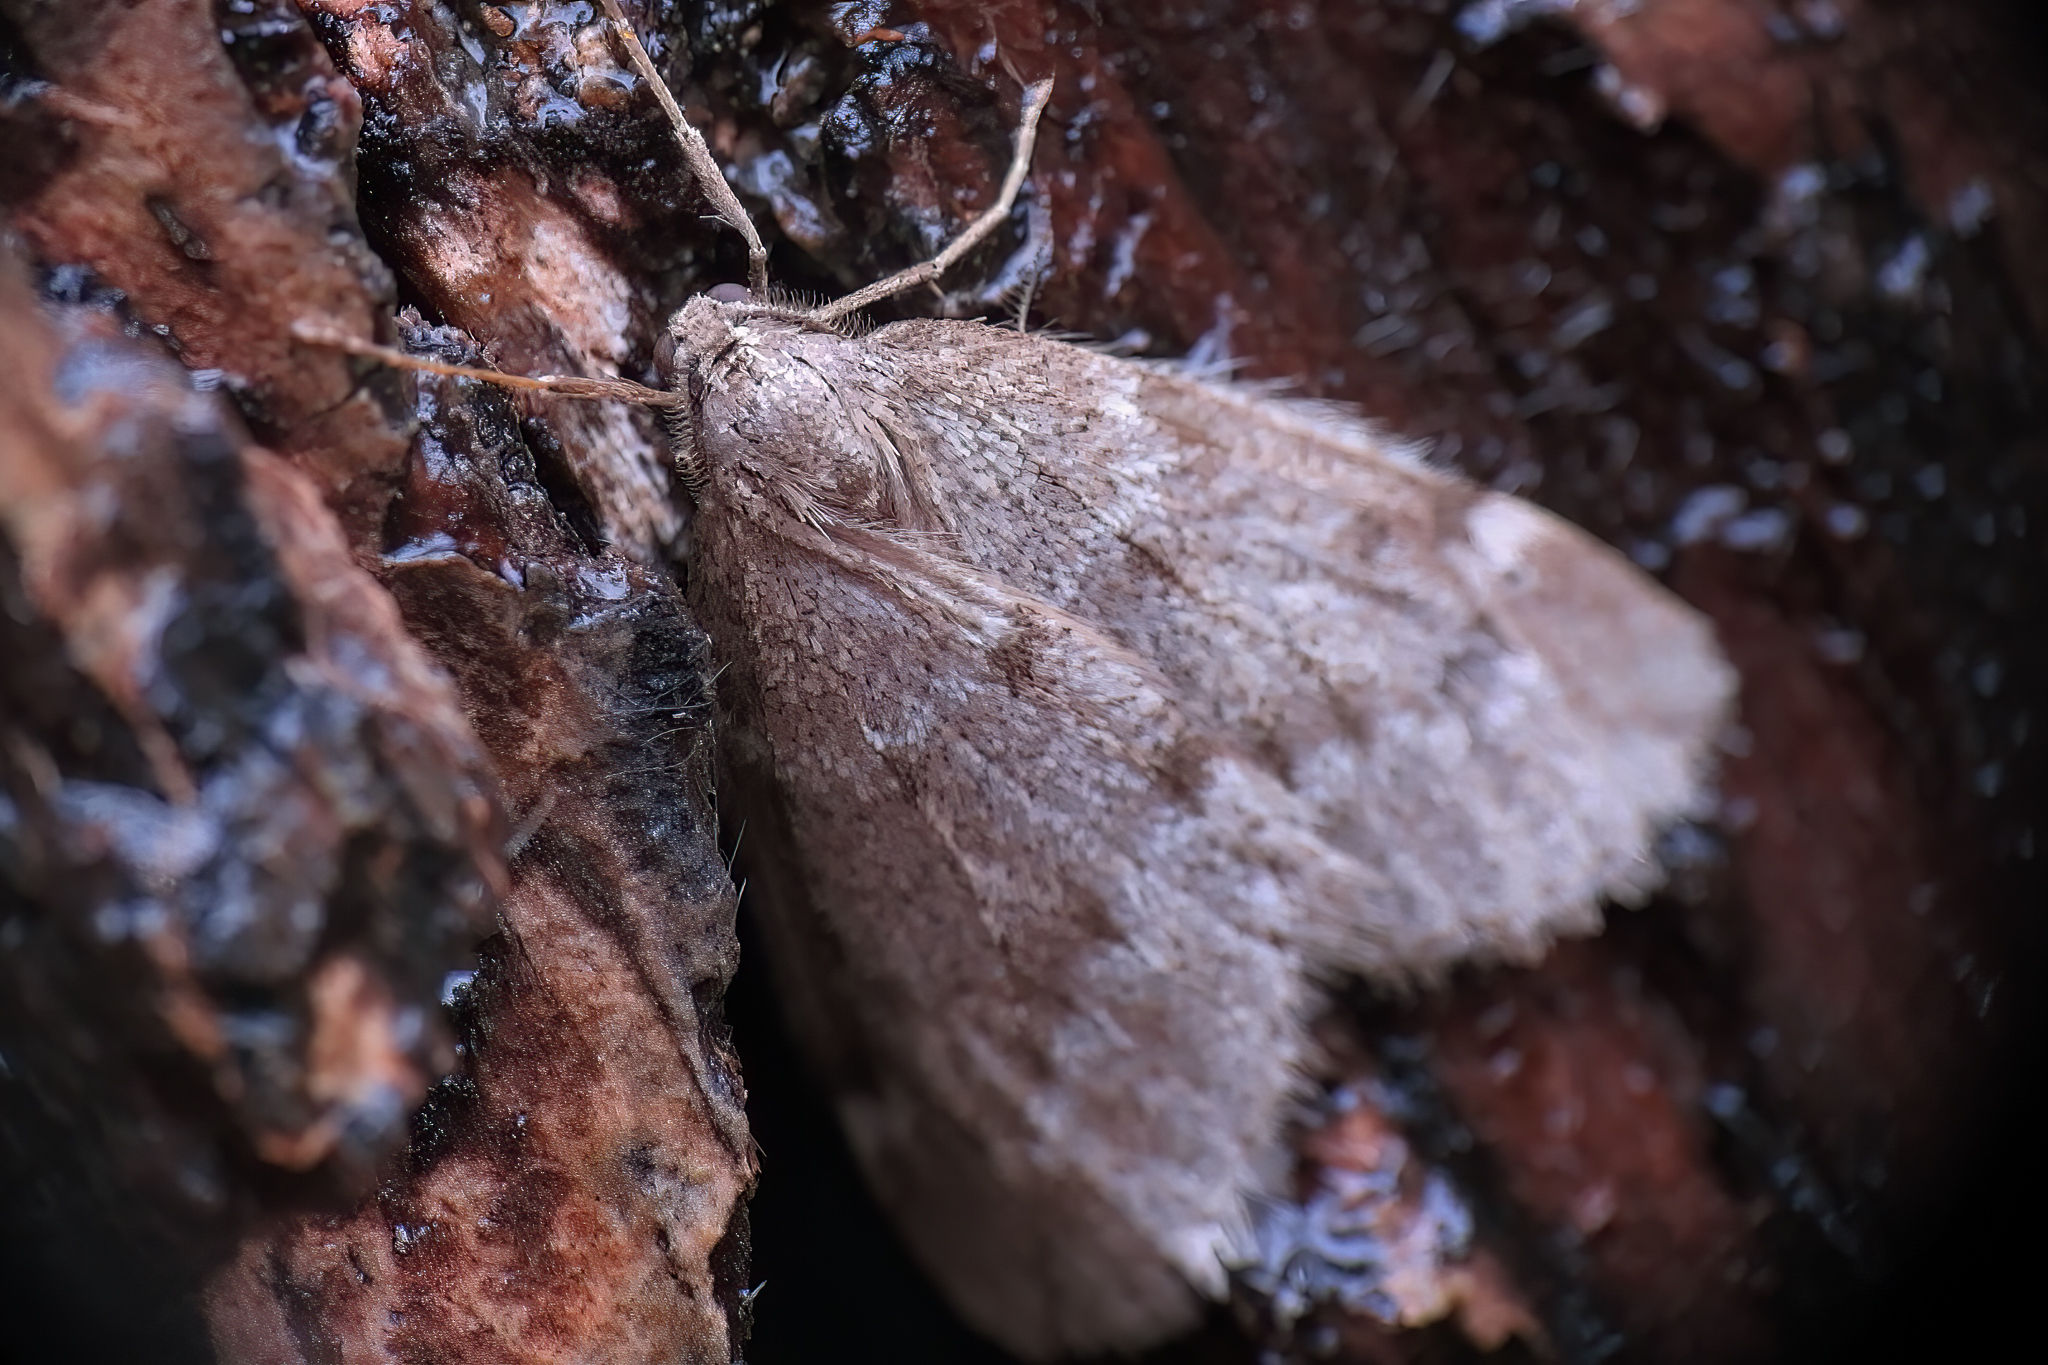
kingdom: Animalia
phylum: Arthropoda
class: Insecta
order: Lepidoptera
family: Geometridae
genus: Alsophila
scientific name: Alsophila pometaria
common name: Fall cankerworm
